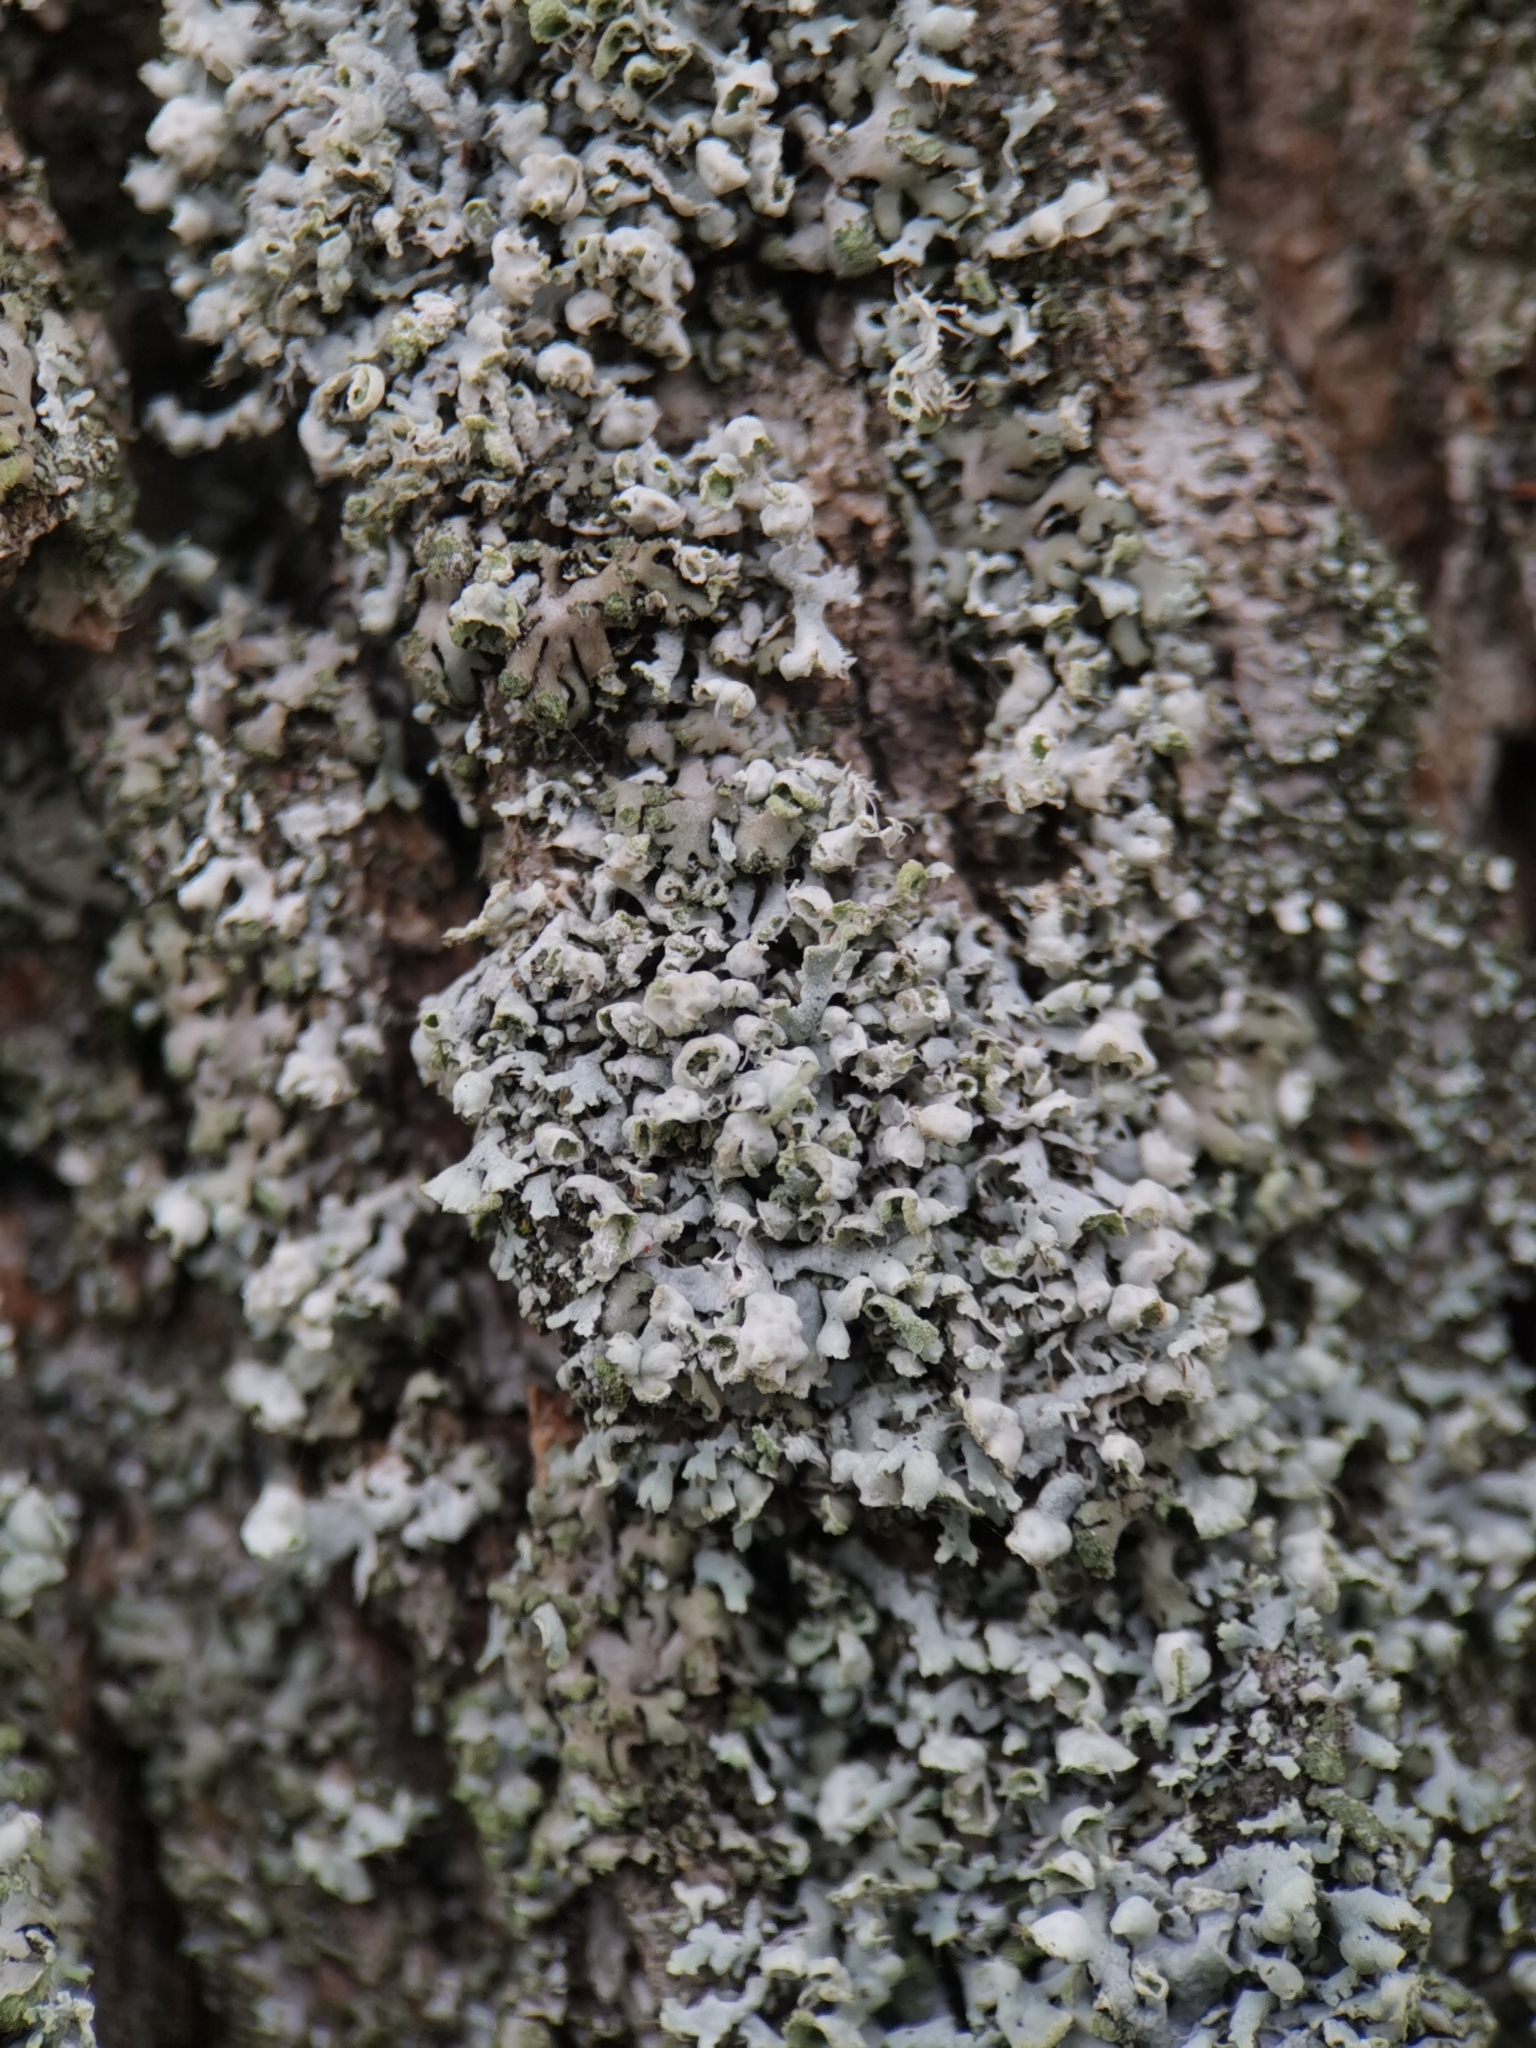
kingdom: Fungi
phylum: Ascomycota
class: Lecanoromycetes
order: Caliciales
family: Physciaceae
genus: Physcia
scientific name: Physcia adscendens
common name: Hooded rosette lichen
